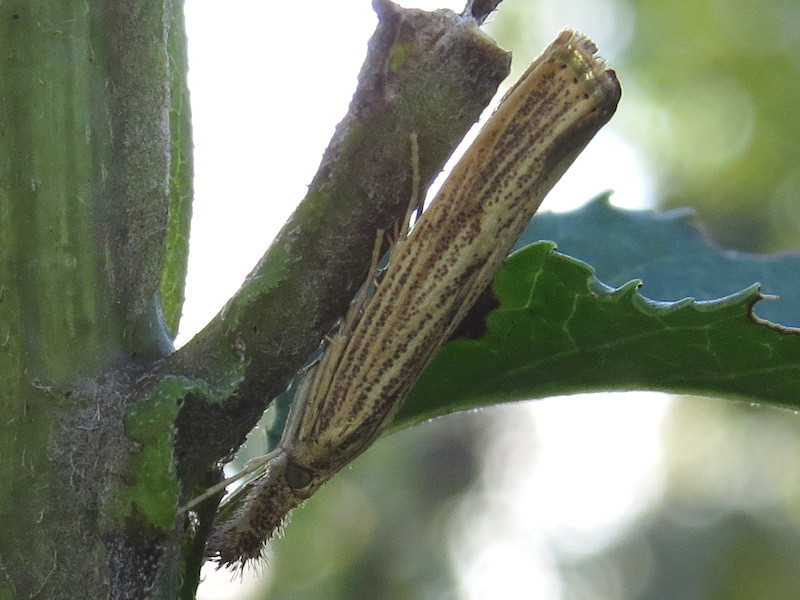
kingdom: Animalia
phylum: Arthropoda
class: Insecta
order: Lepidoptera
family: Crambidae
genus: Agriphila
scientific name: Agriphila vulgivagellus
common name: Vagabond crambus moth
